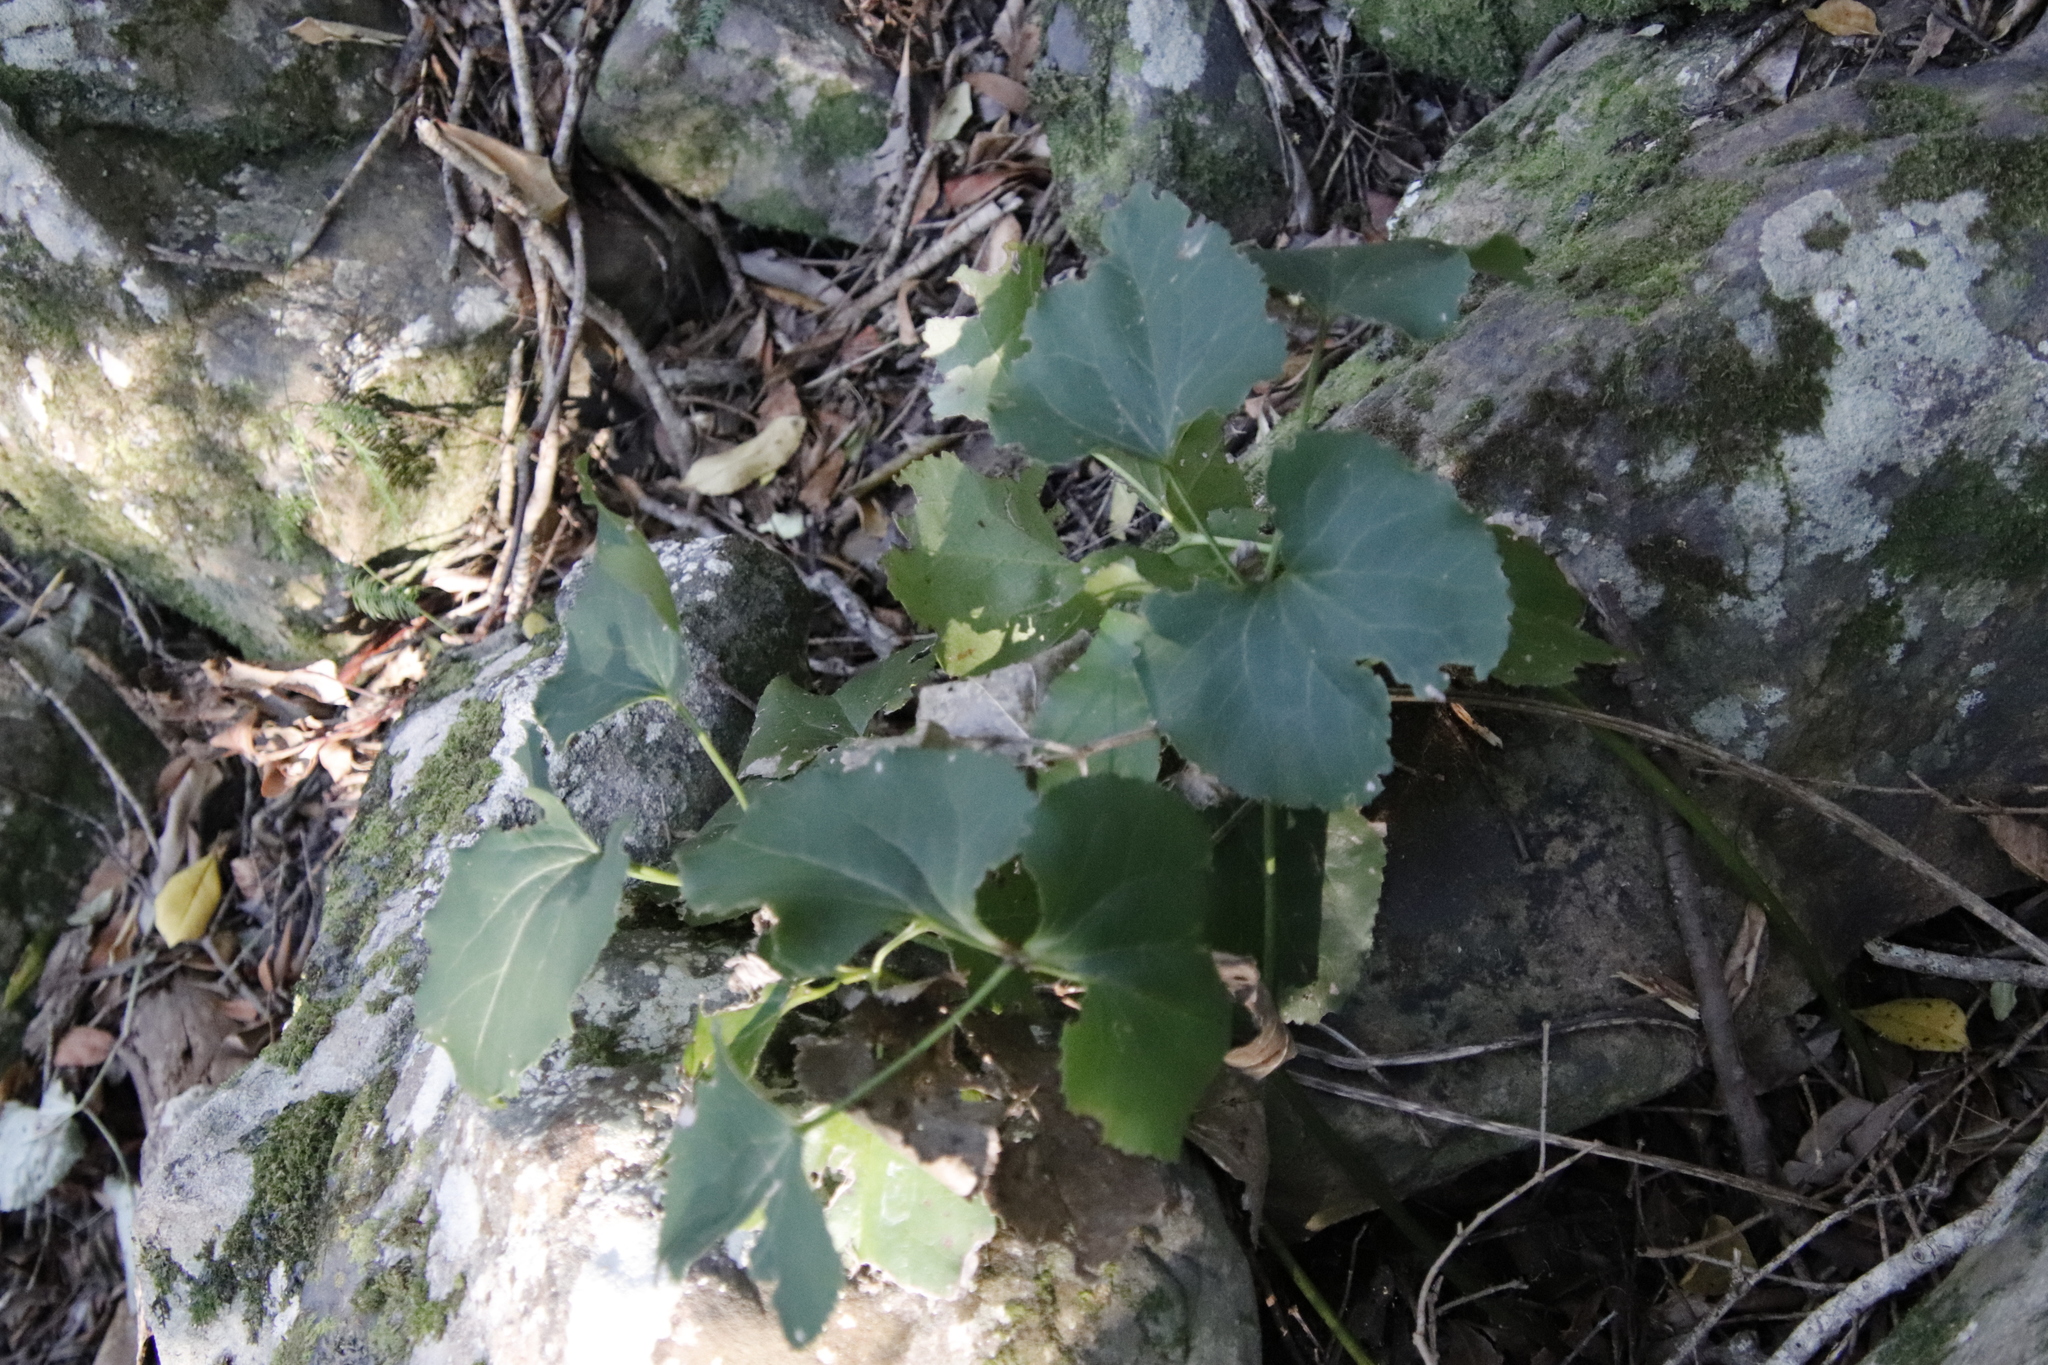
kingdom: Plantae
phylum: Tracheophyta
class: Magnoliopsida
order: Ranunculales
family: Ranunculaceae
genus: Knowltonia
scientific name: Knowltonia vesicatoria
